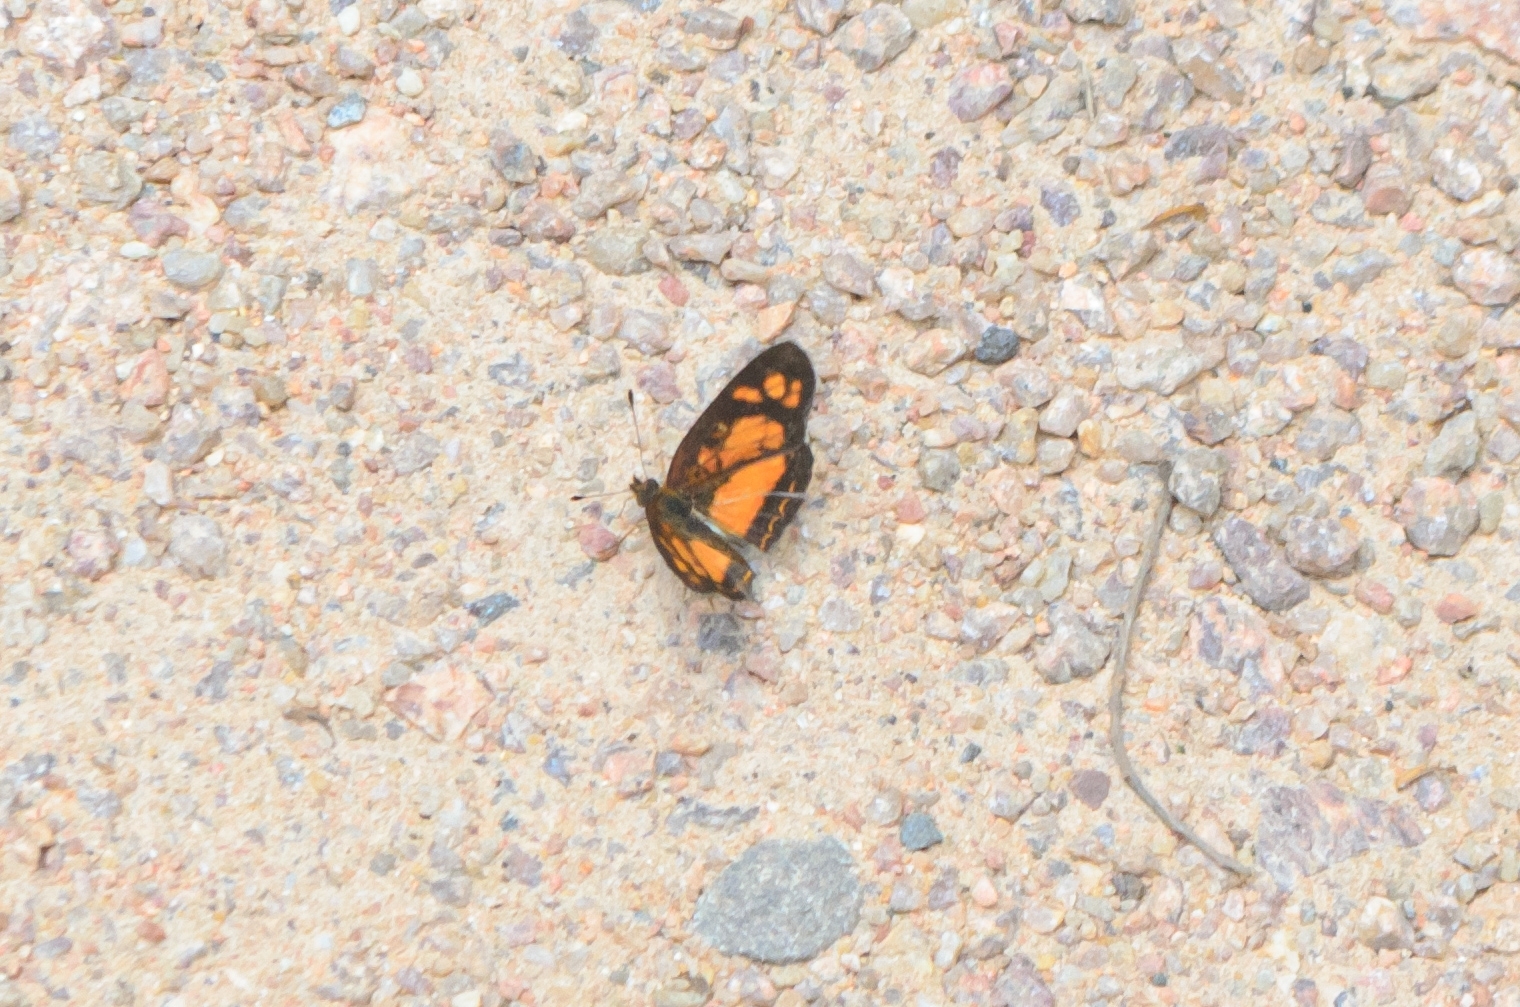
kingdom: Animalia
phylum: Arthropoda
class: Insecta
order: Lepidoptera
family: Nymphalidae
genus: Ortilia
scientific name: Ortilia dicoma
